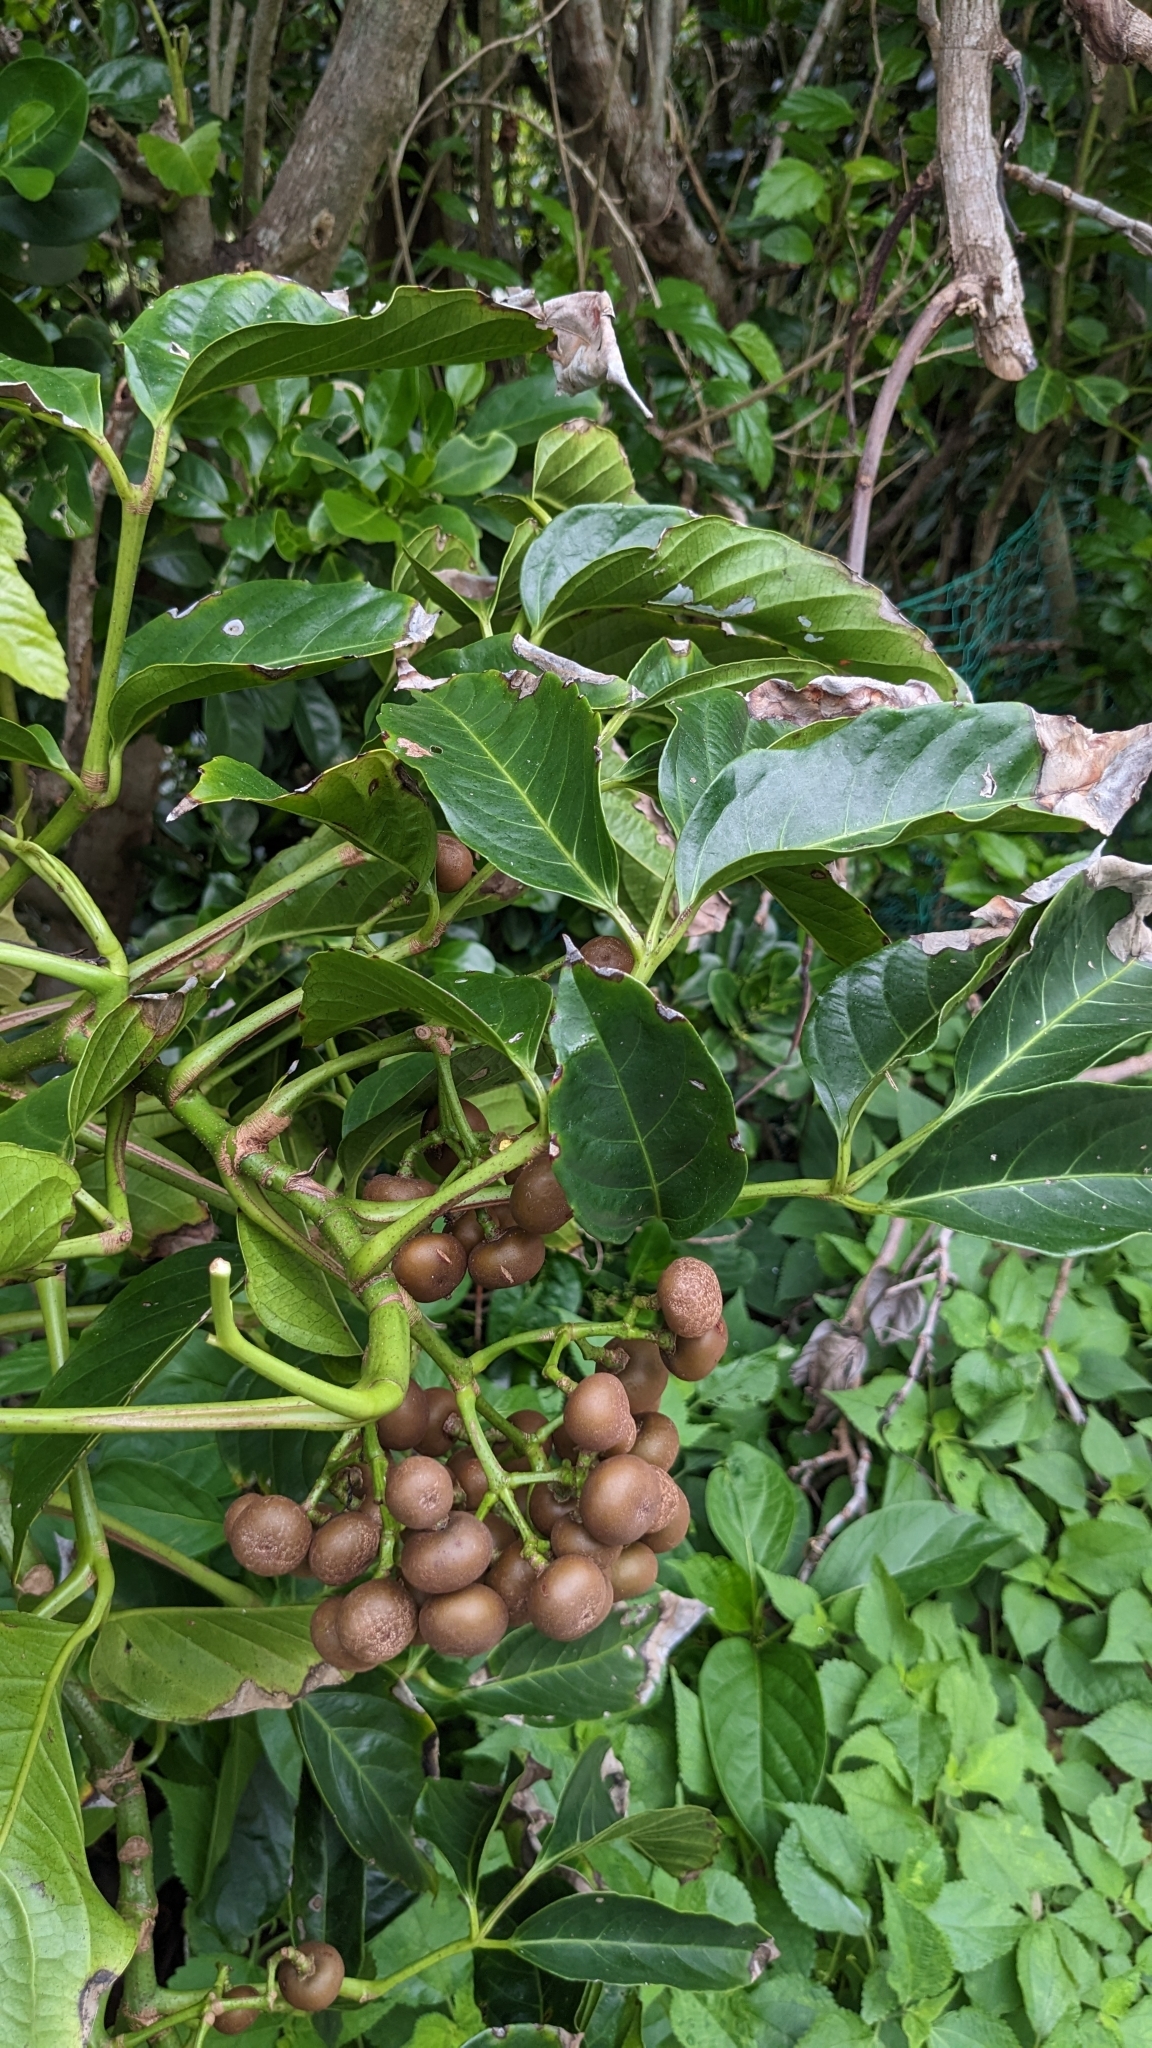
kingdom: Plantae
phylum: Tracheophyta
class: Magnoliopsida
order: Vitales
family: Vitaceae
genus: Leea
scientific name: Leea philippinensis
